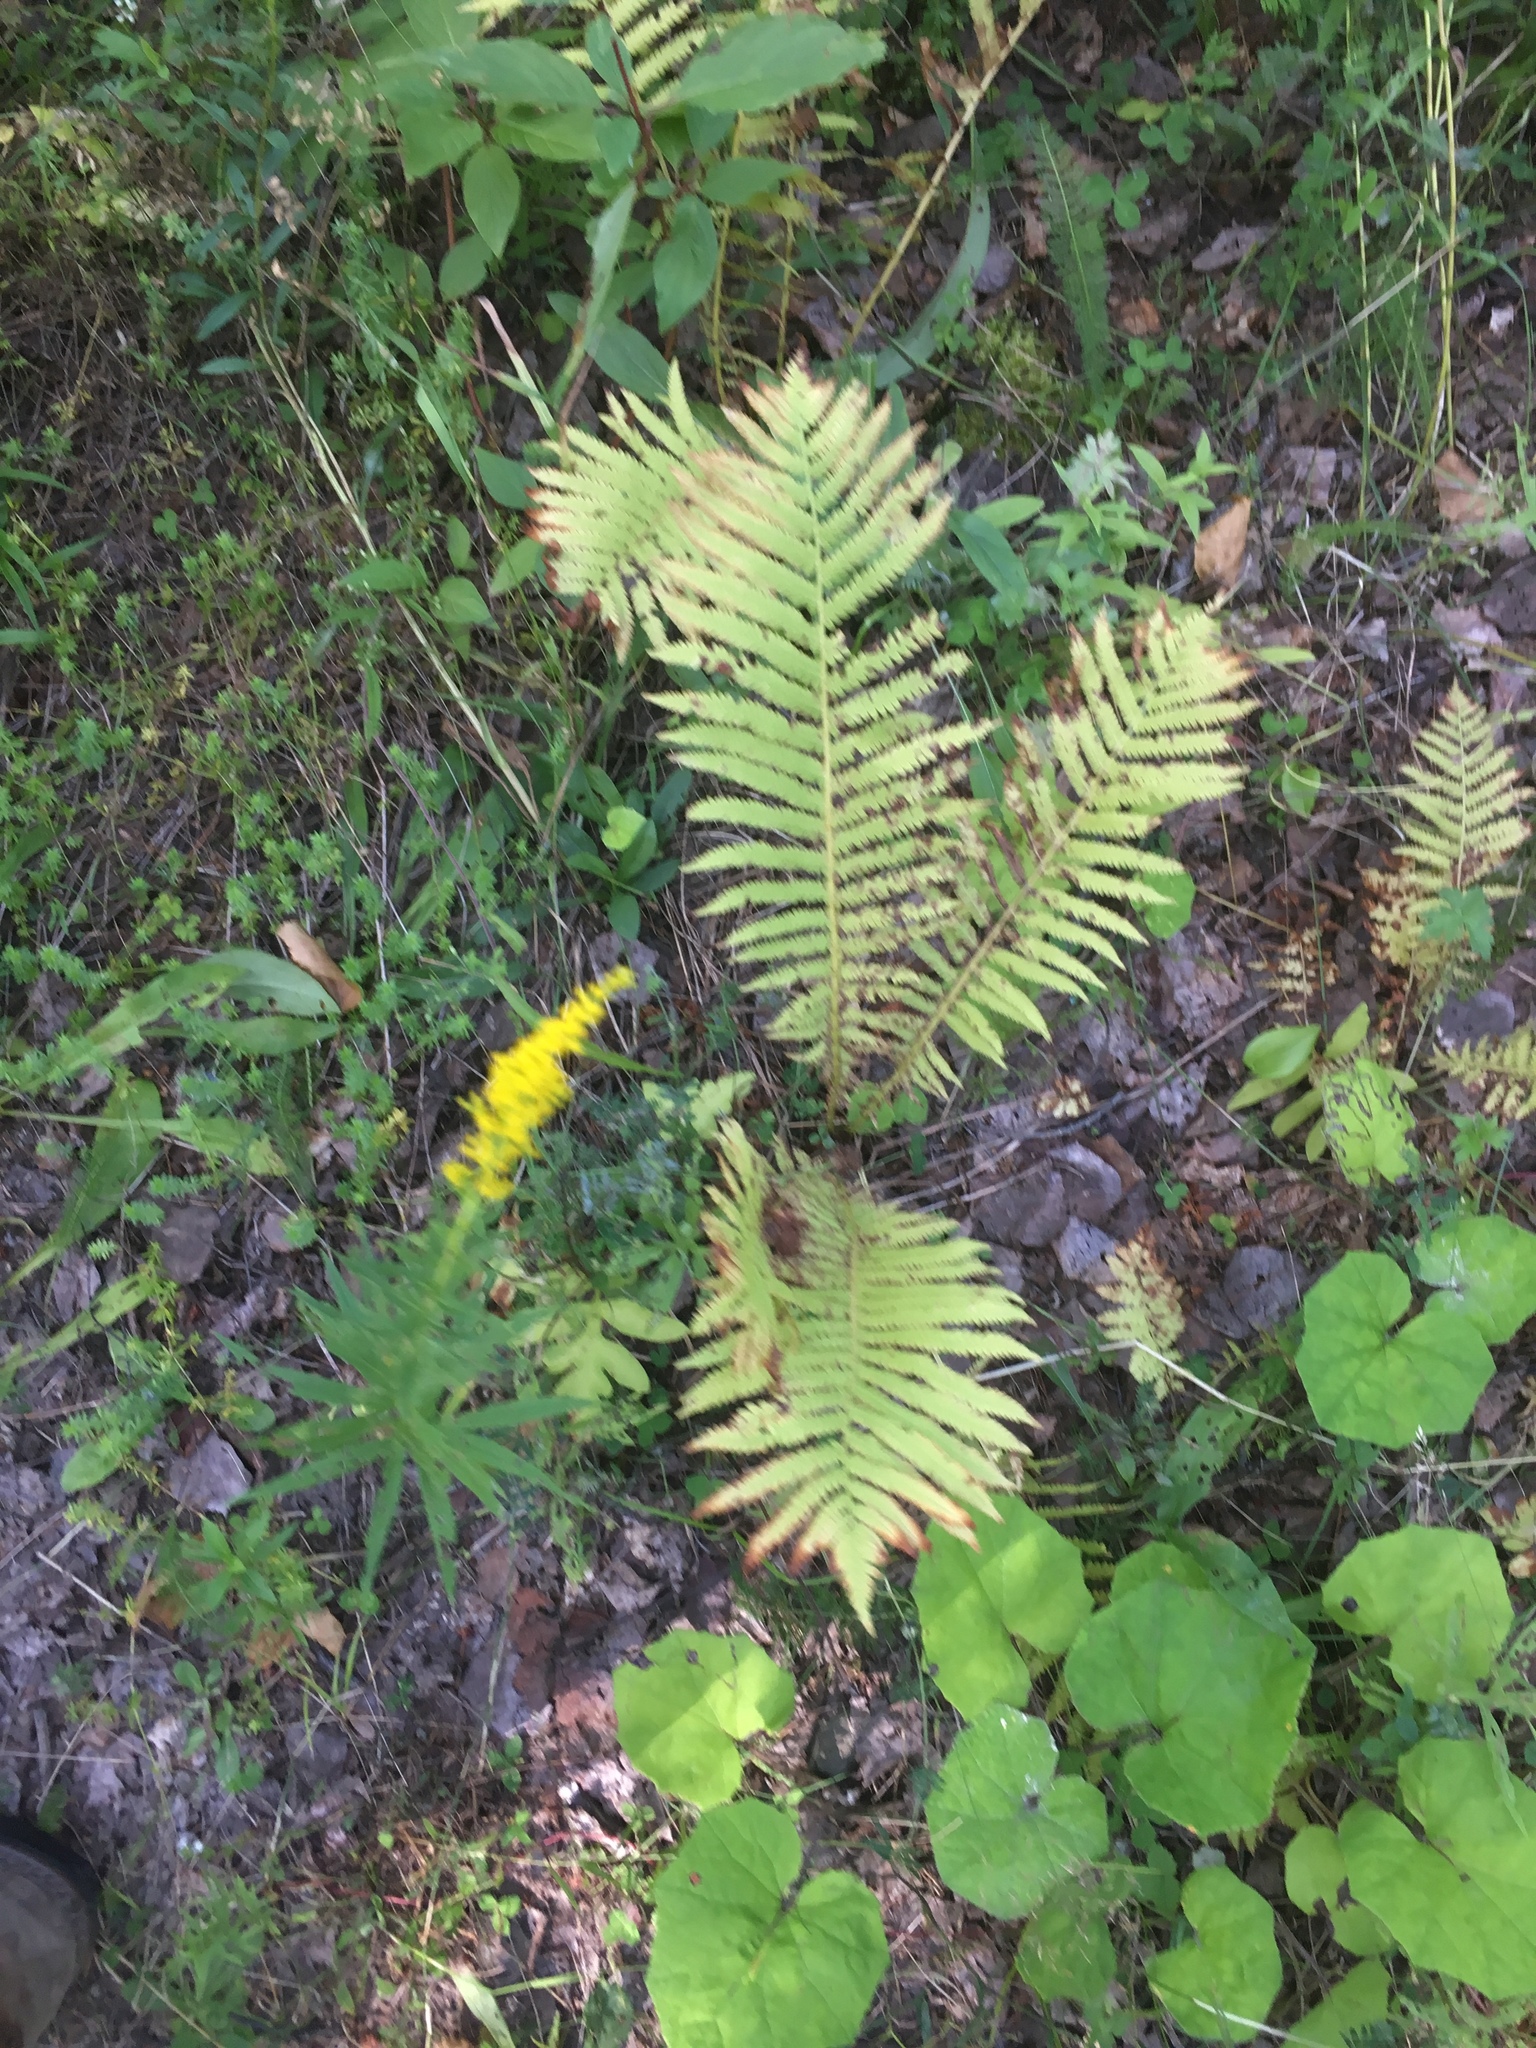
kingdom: Plantae
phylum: Tracheophyta
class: Polypodiopsida
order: Polypodiales
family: Onocleaceae
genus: Matteuccia
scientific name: Matteuccia struthiopteris
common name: Ostrich fern
